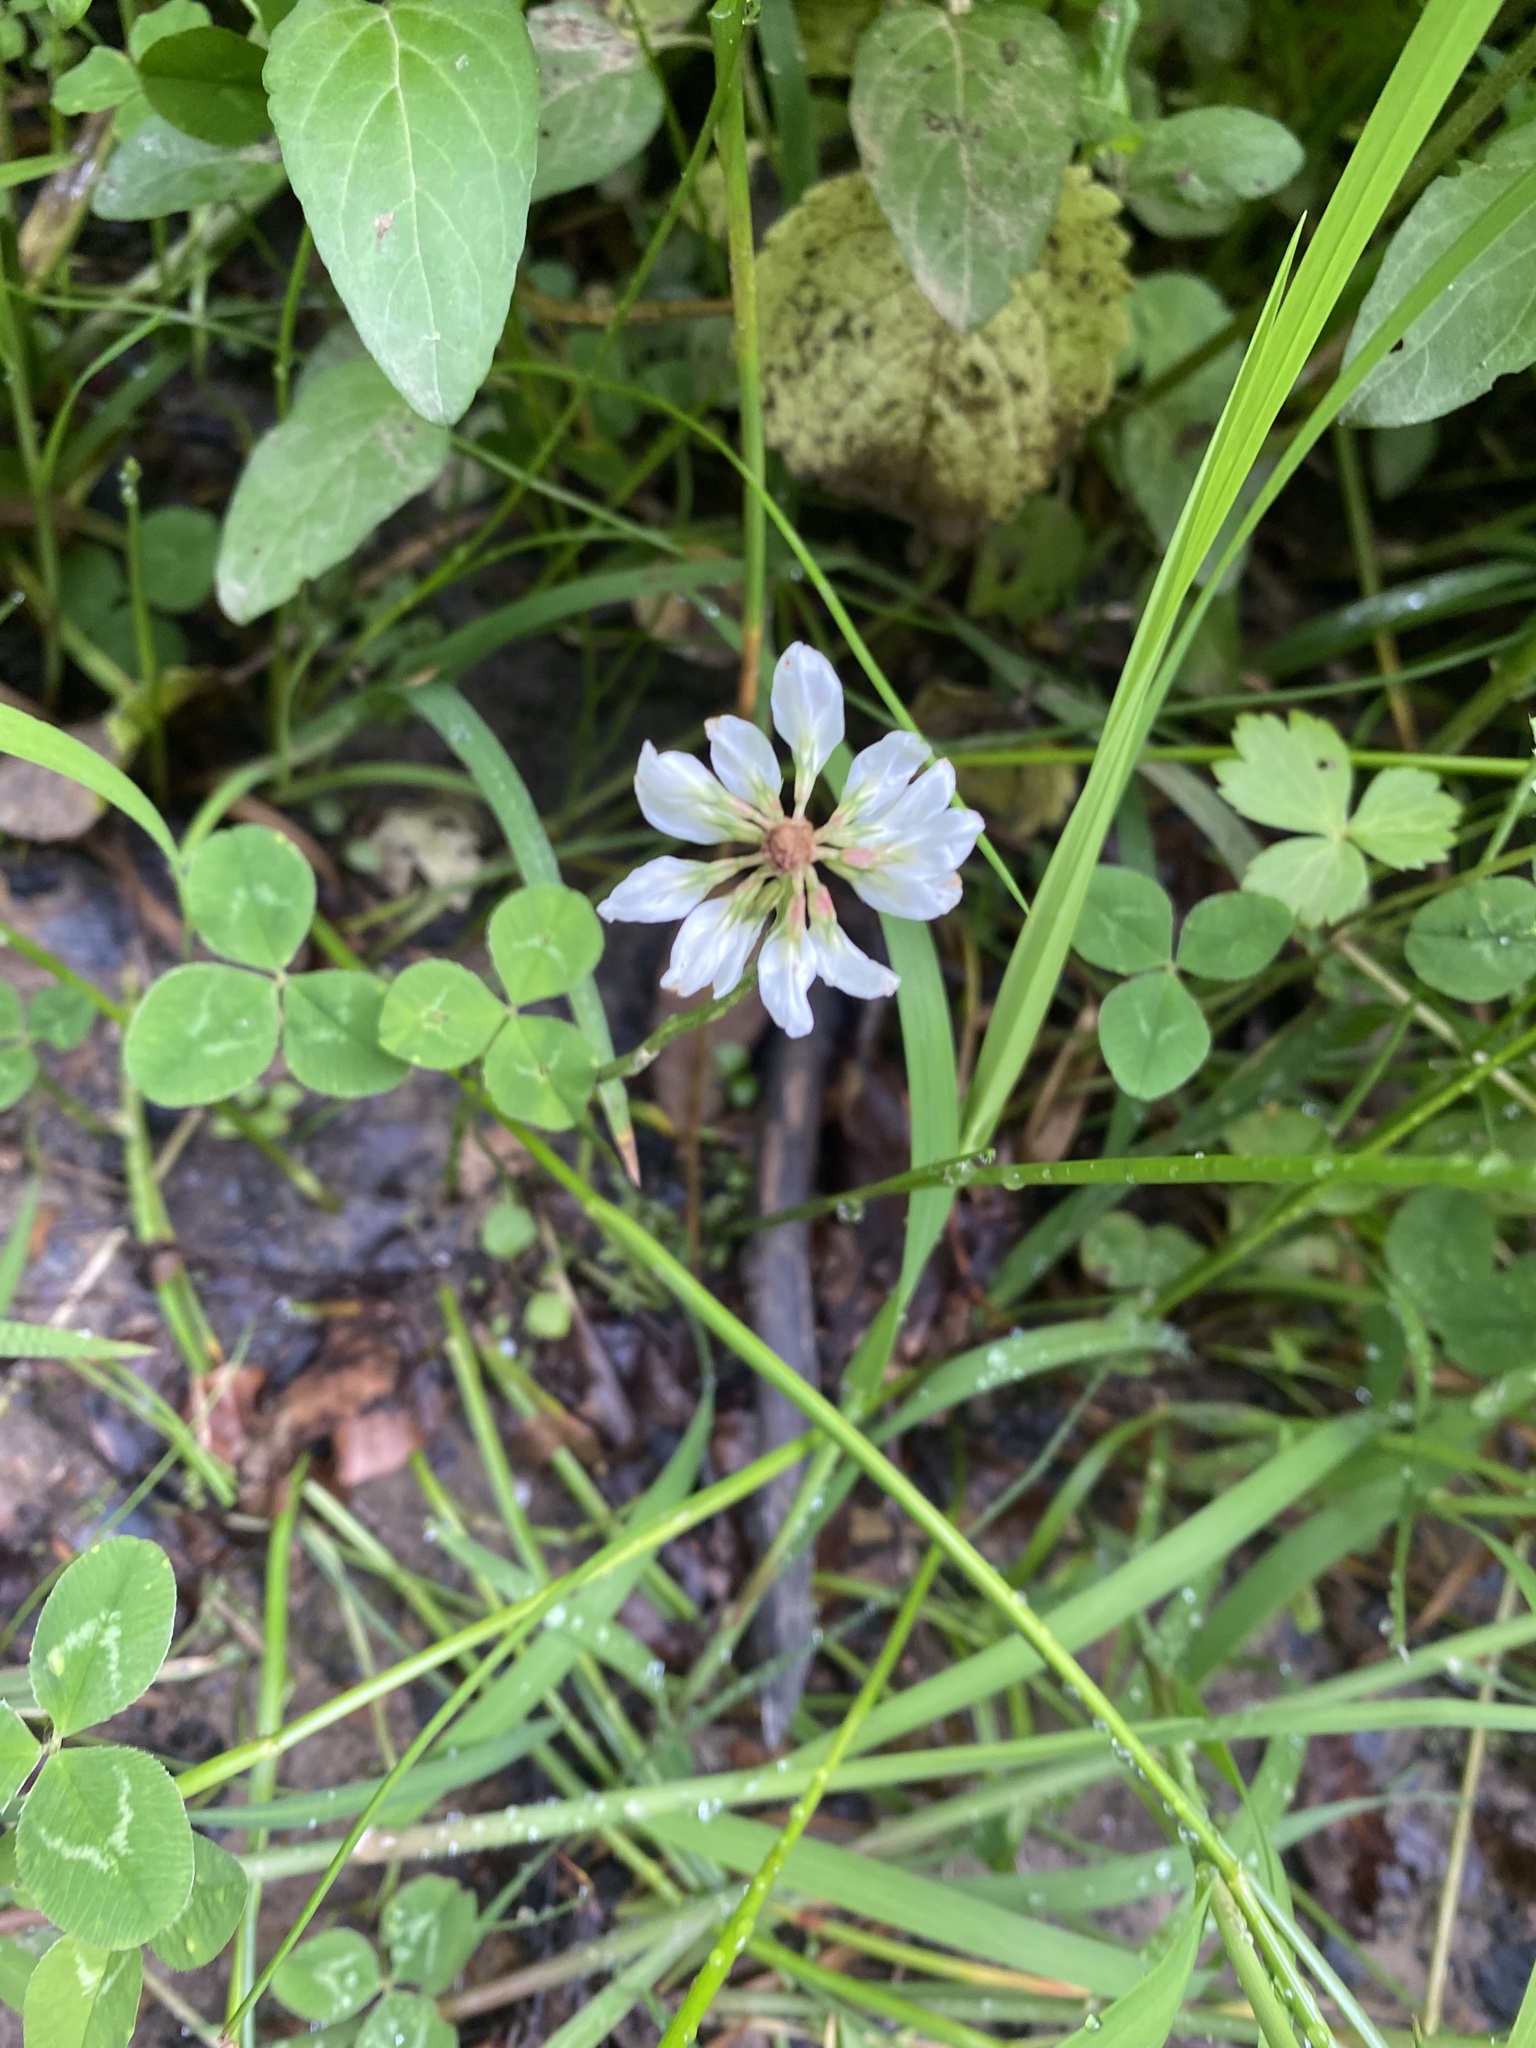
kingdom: Plantae
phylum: Tracheophyta
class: Magnoliopsida
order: Fabales
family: Fabaceae
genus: Trifolium
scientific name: Trifolium repens
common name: White clover
